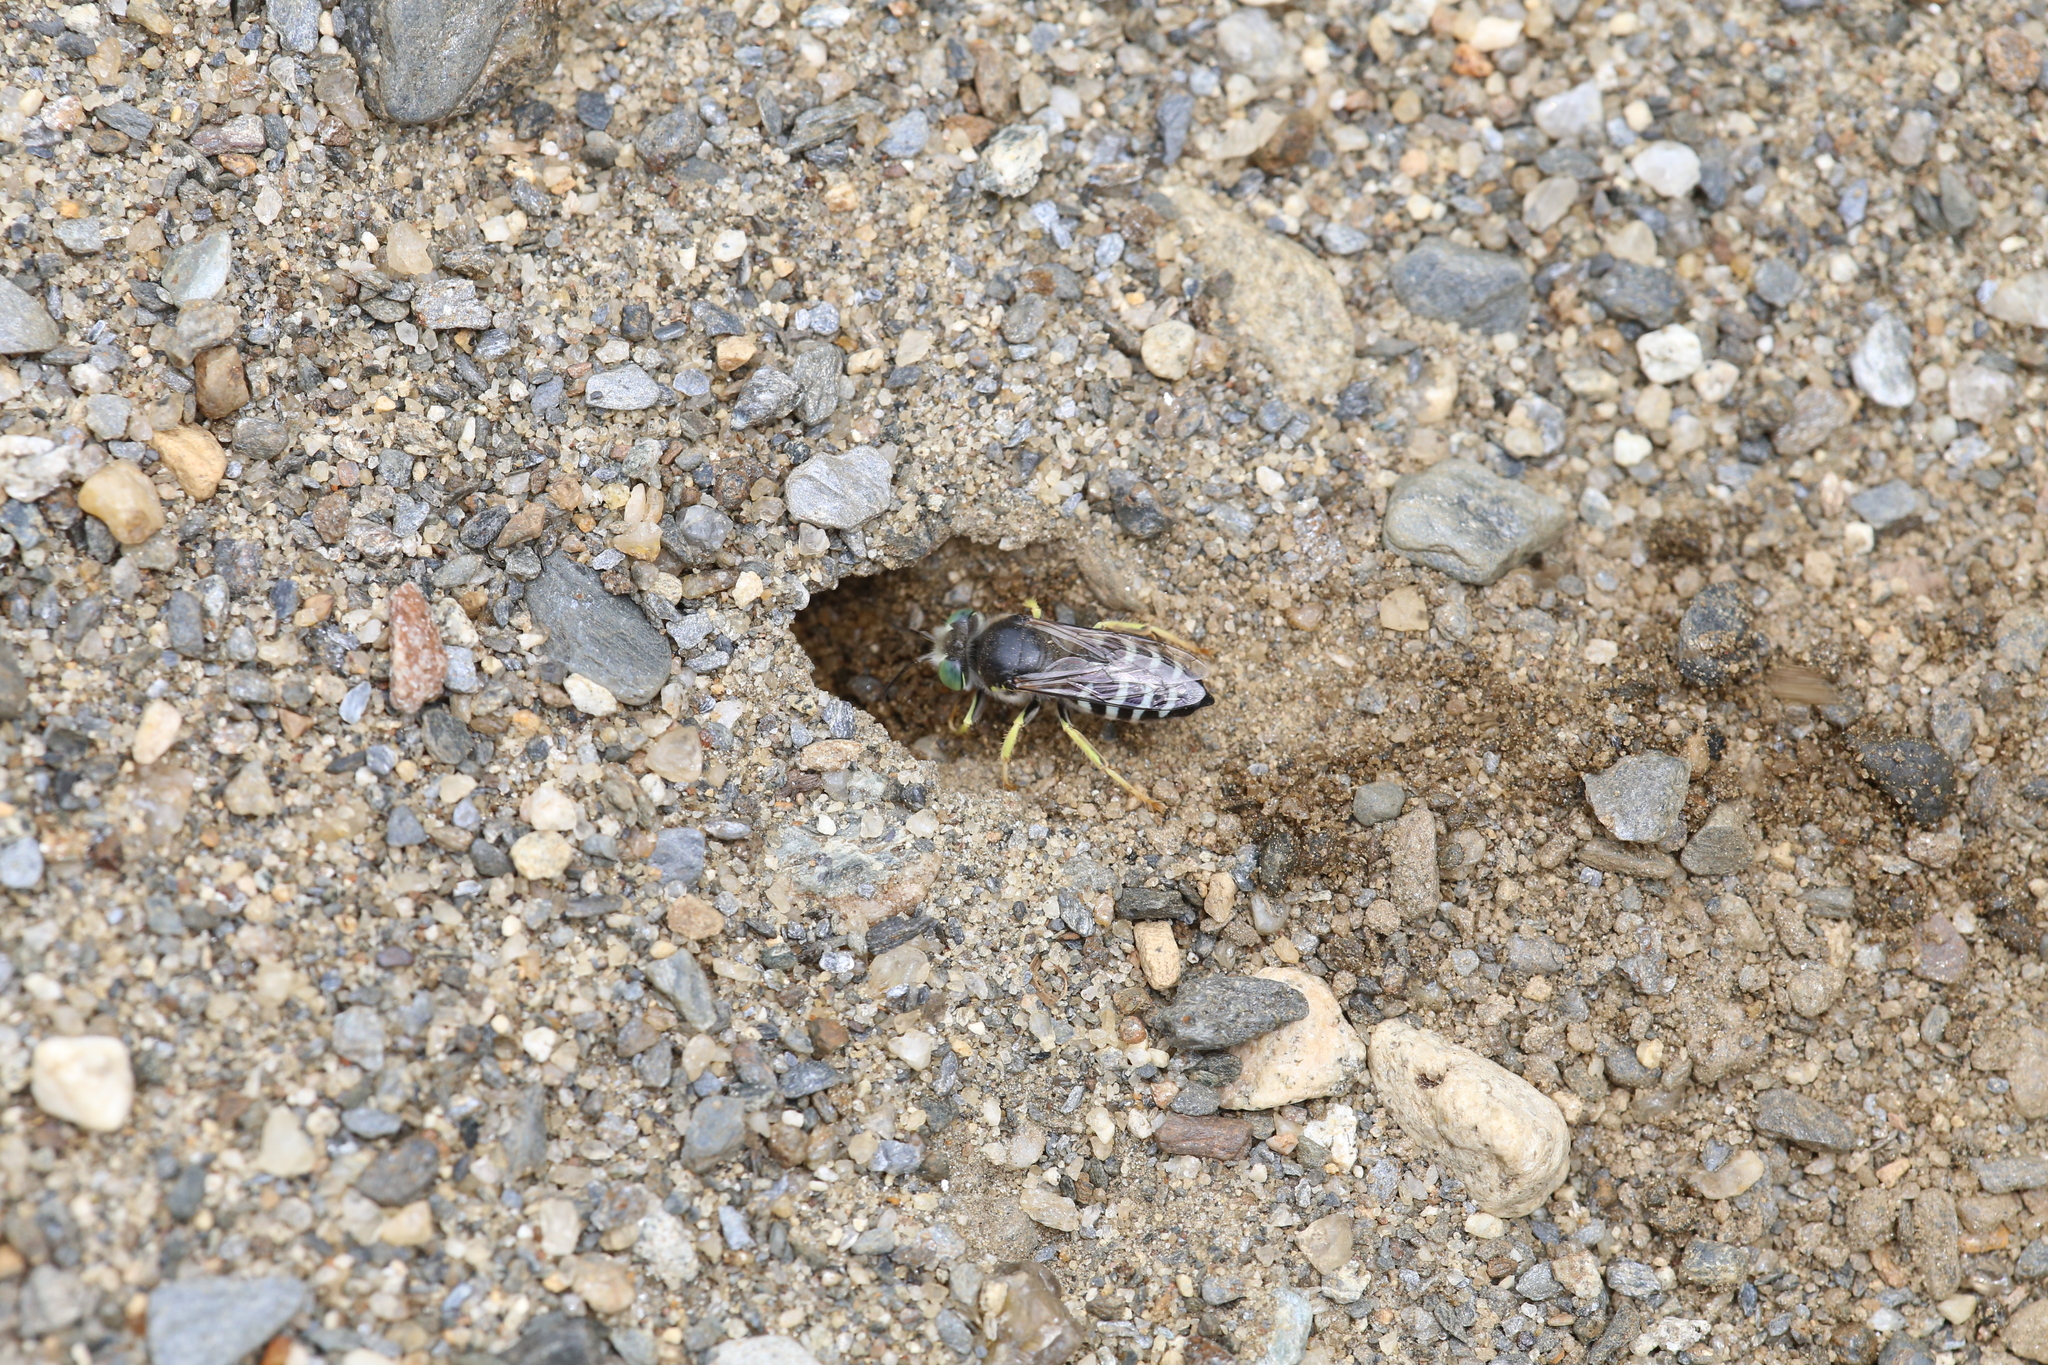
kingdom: Animalia
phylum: Arthropoda
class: Insecta
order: Hymenoptera
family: Crabronidae
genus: Bembix
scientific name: Bembix americana
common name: American sand wasp
